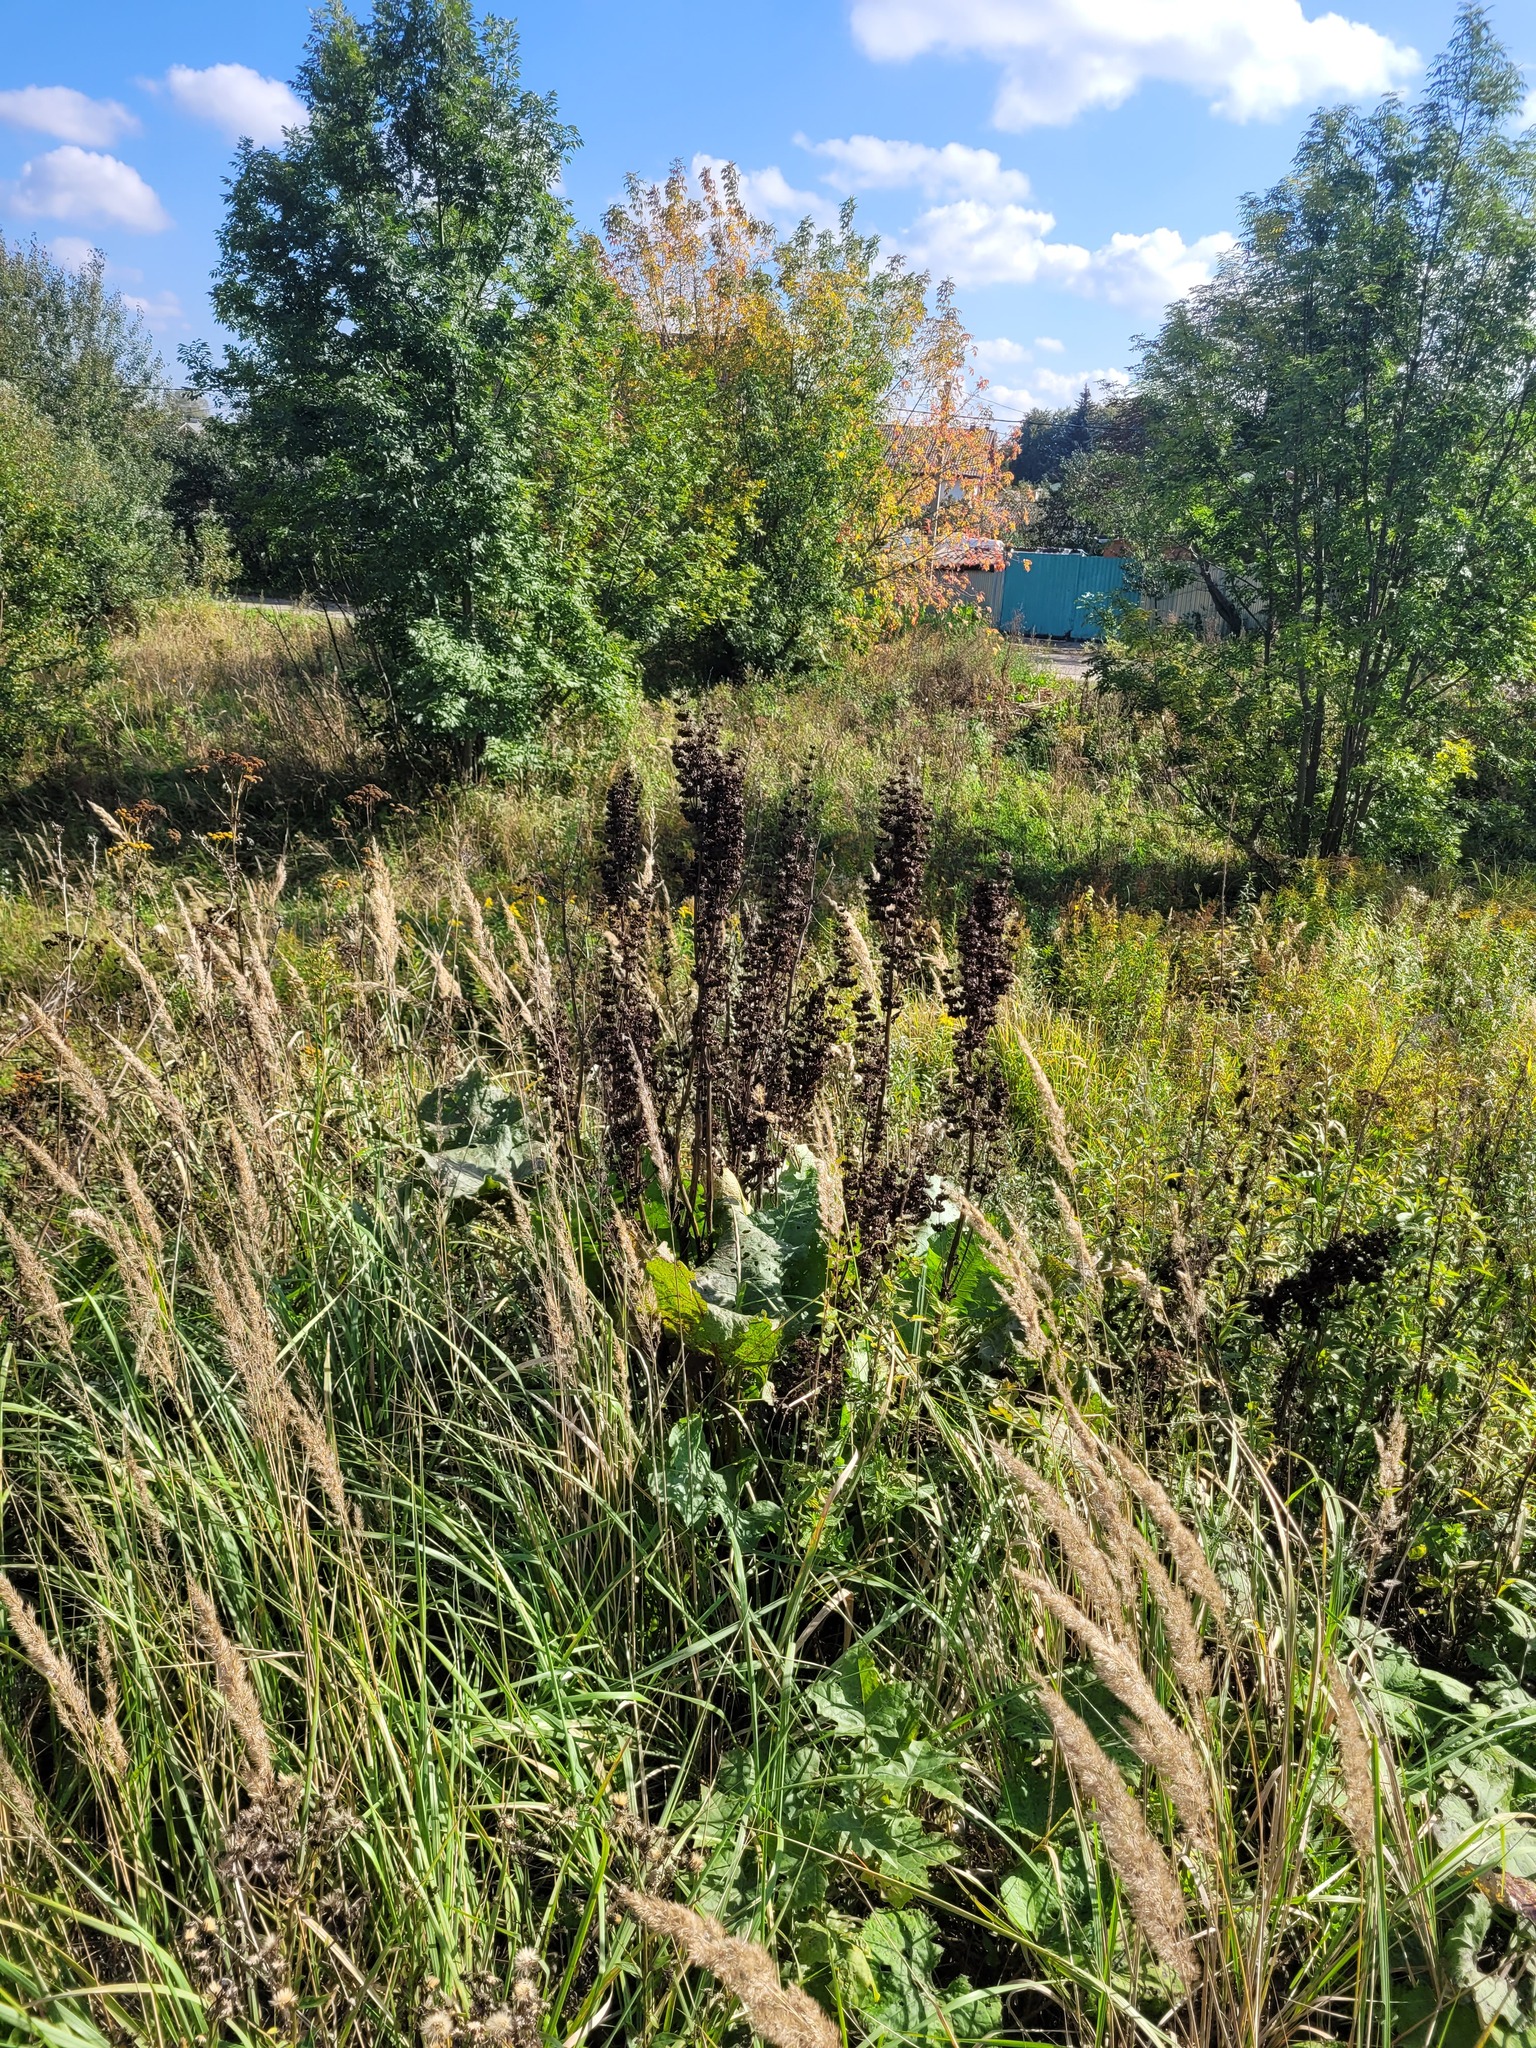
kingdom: Plantae
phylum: Tracheophyta
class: Magnoliopsida
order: Caryophyllales
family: Polygonaceae
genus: Rumex
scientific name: Rumex confertus
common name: Russian dock
